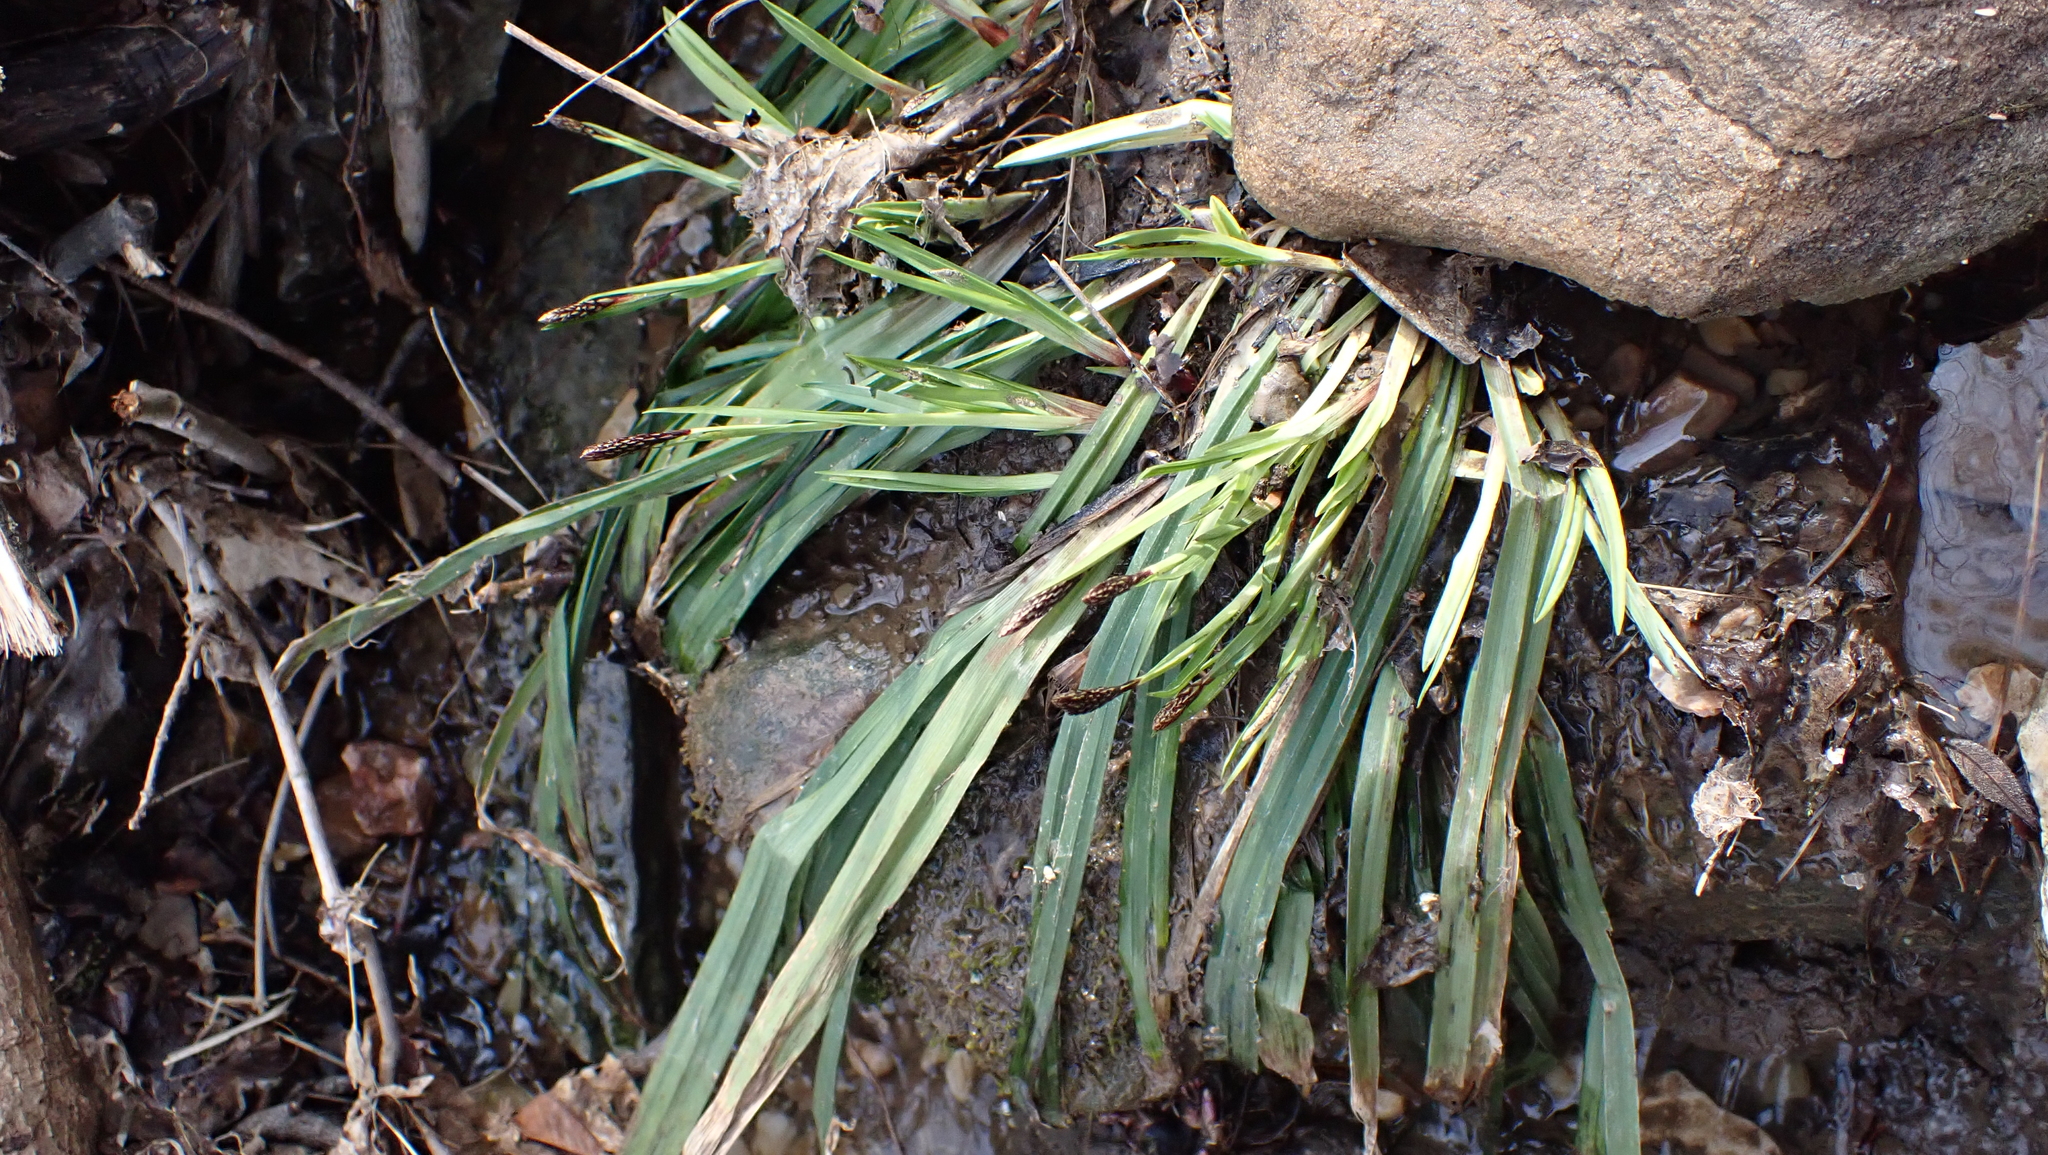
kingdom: Plantae
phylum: Tracheophyta
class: Liliopsida
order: Poales
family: Cyperaceae
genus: Carex
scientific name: Carex careyana
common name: Carey's sedge
